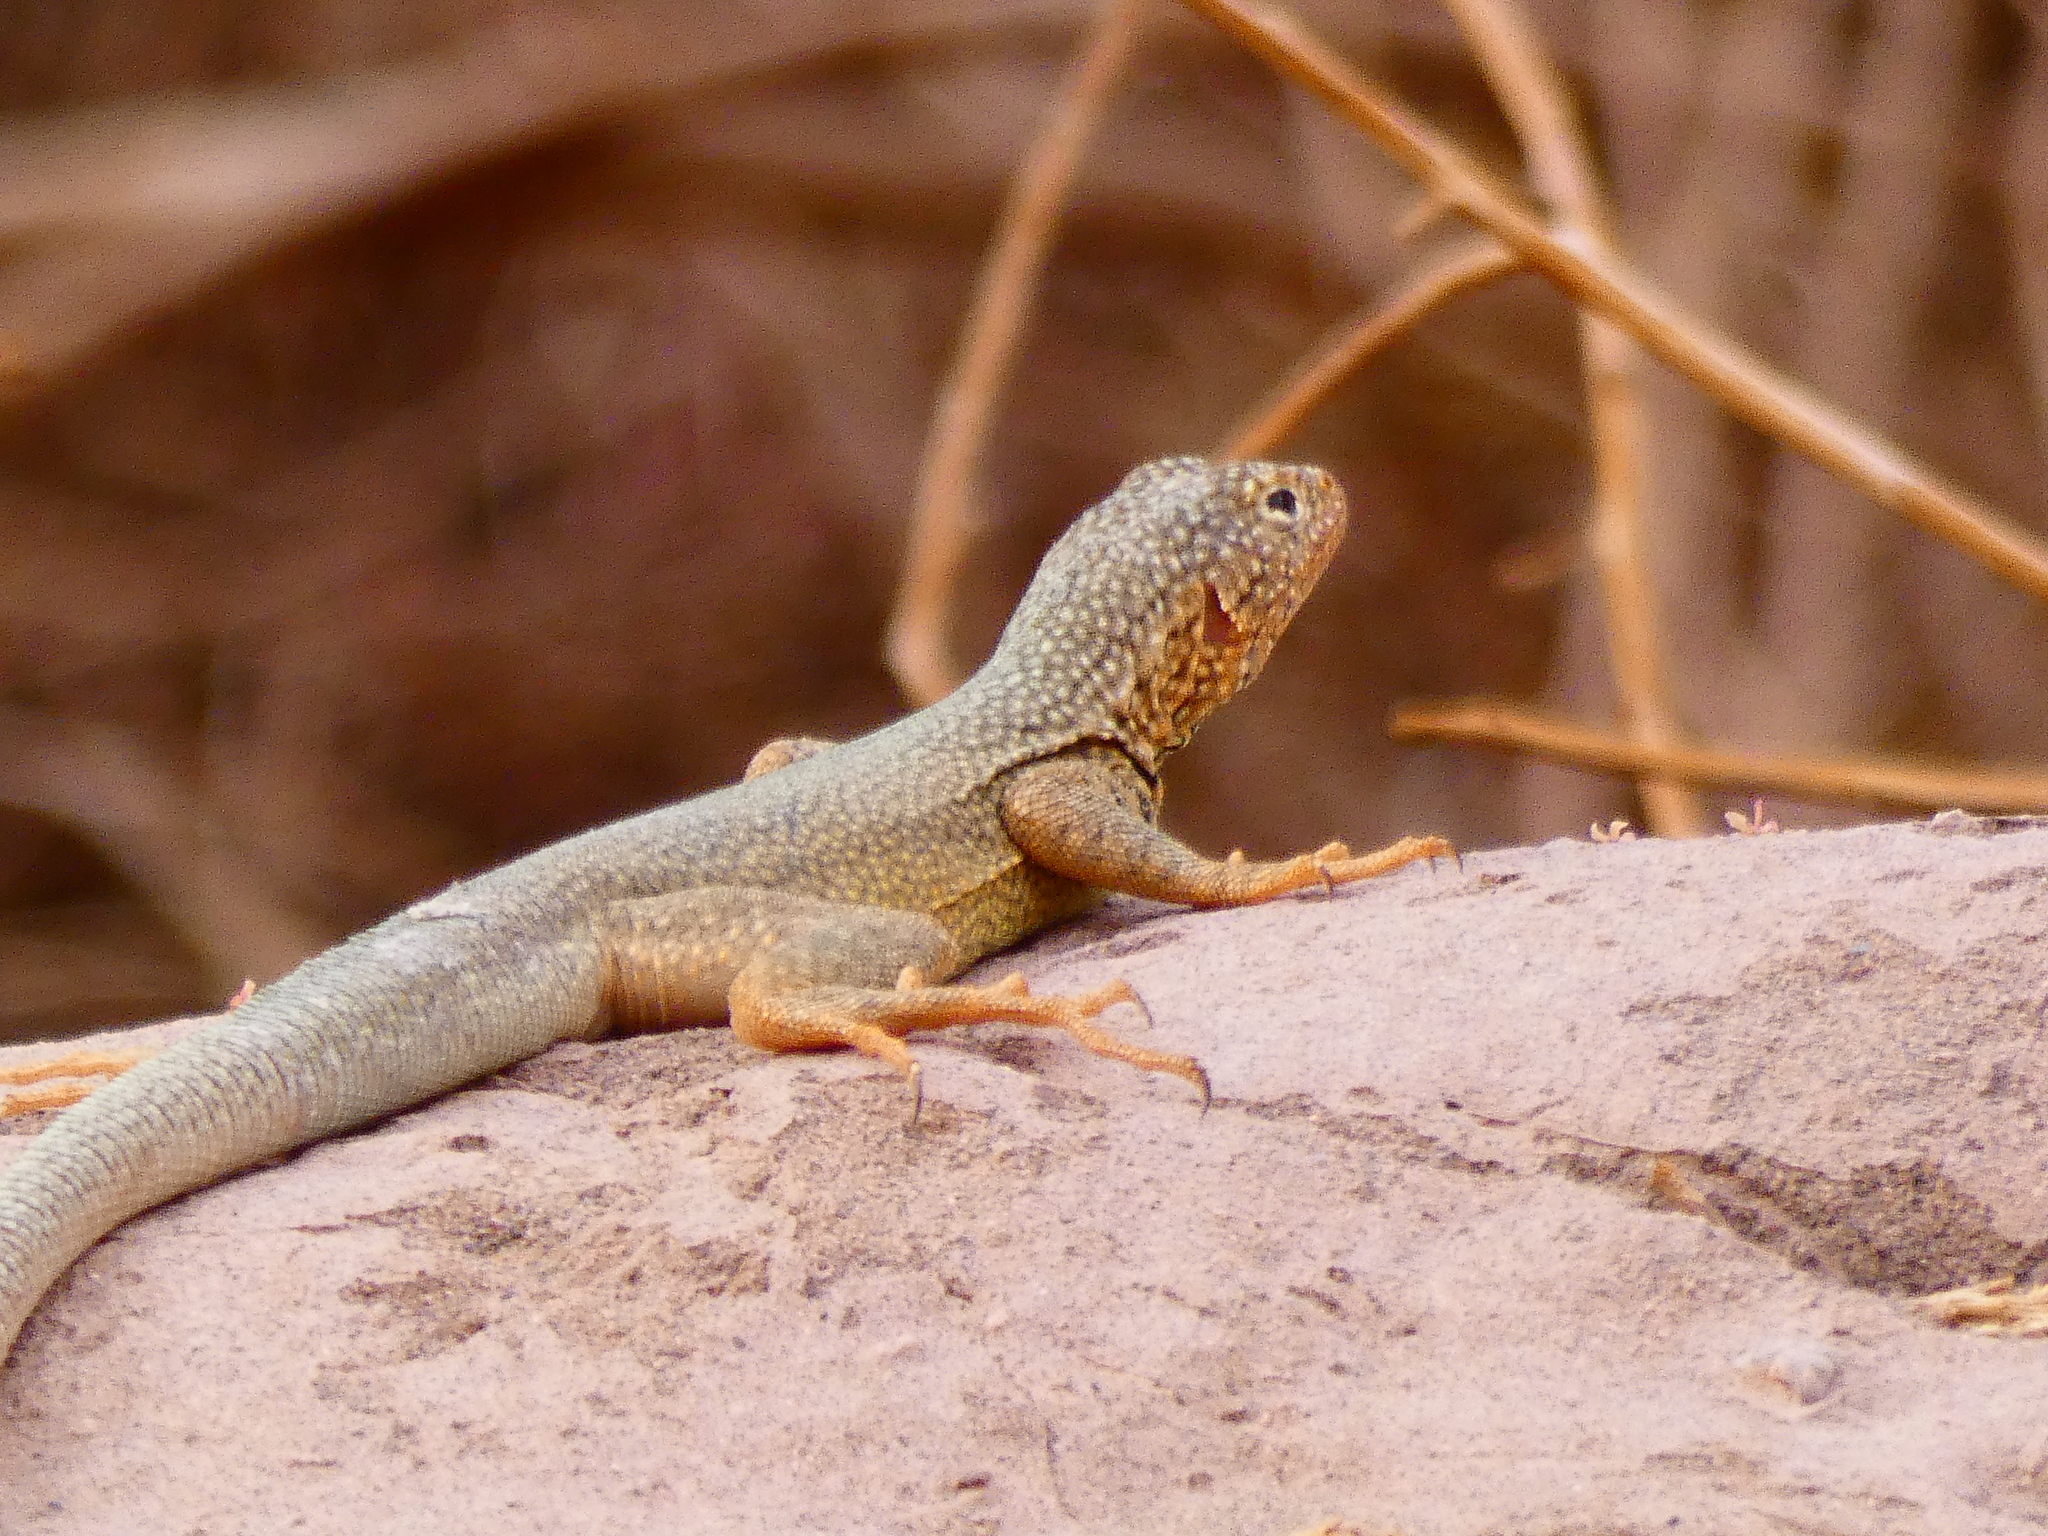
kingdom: Animalia
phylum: Chordata
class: Squamata
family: Tropiduridae
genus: Microlophus
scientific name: Microlophus theresioides
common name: Small pacific iguana
